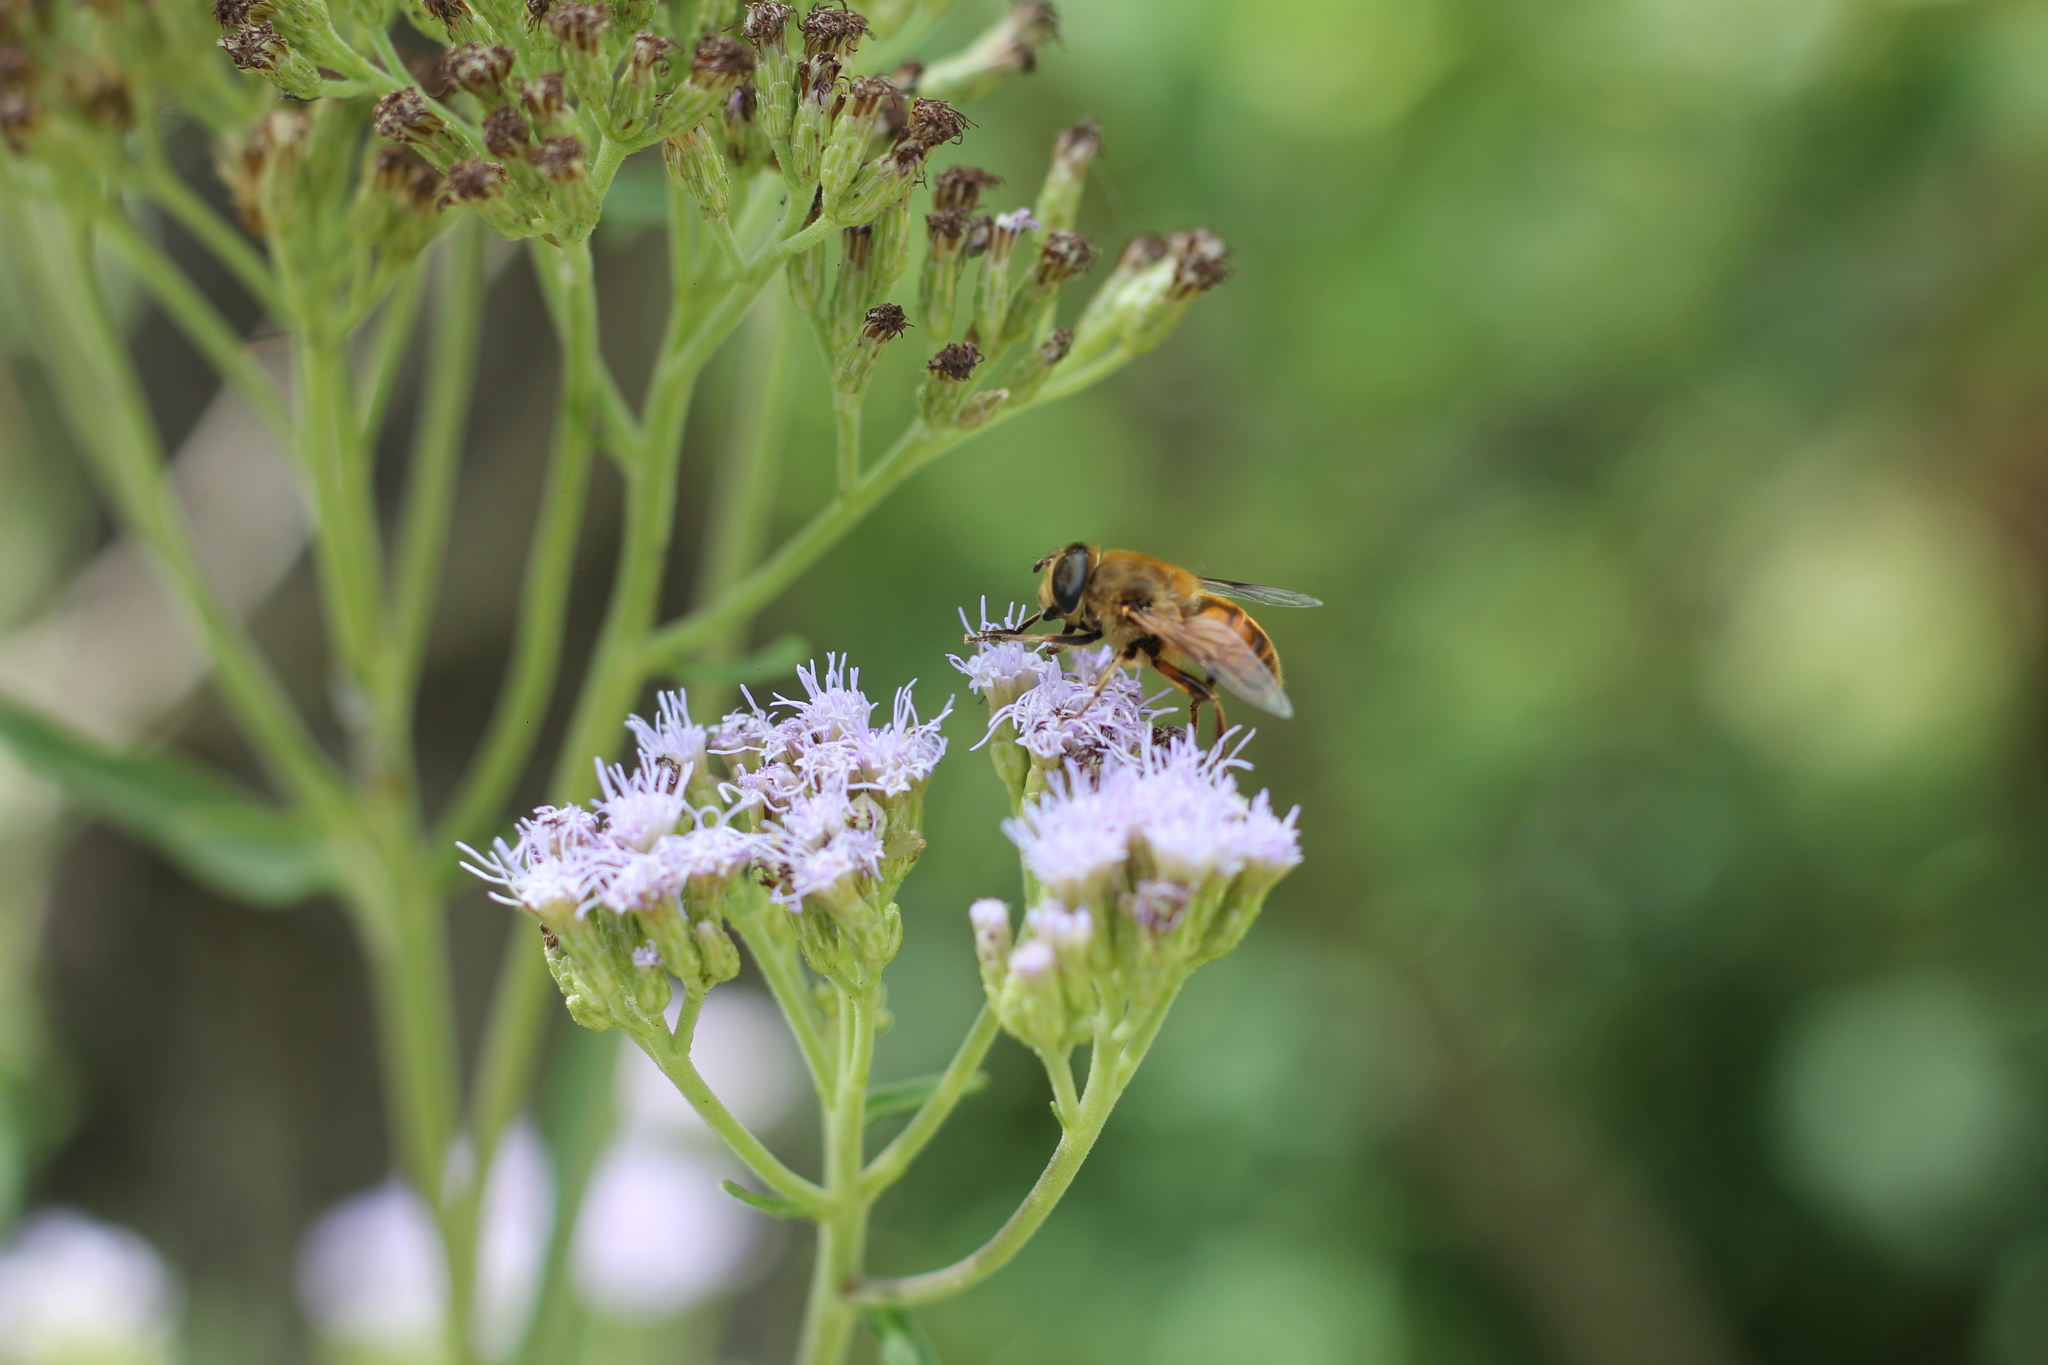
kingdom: Animalia
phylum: Arthropoda
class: Insecta
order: Diptera
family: Syrphidae
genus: Eristalis
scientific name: Eristalis tenax
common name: Drone fly
